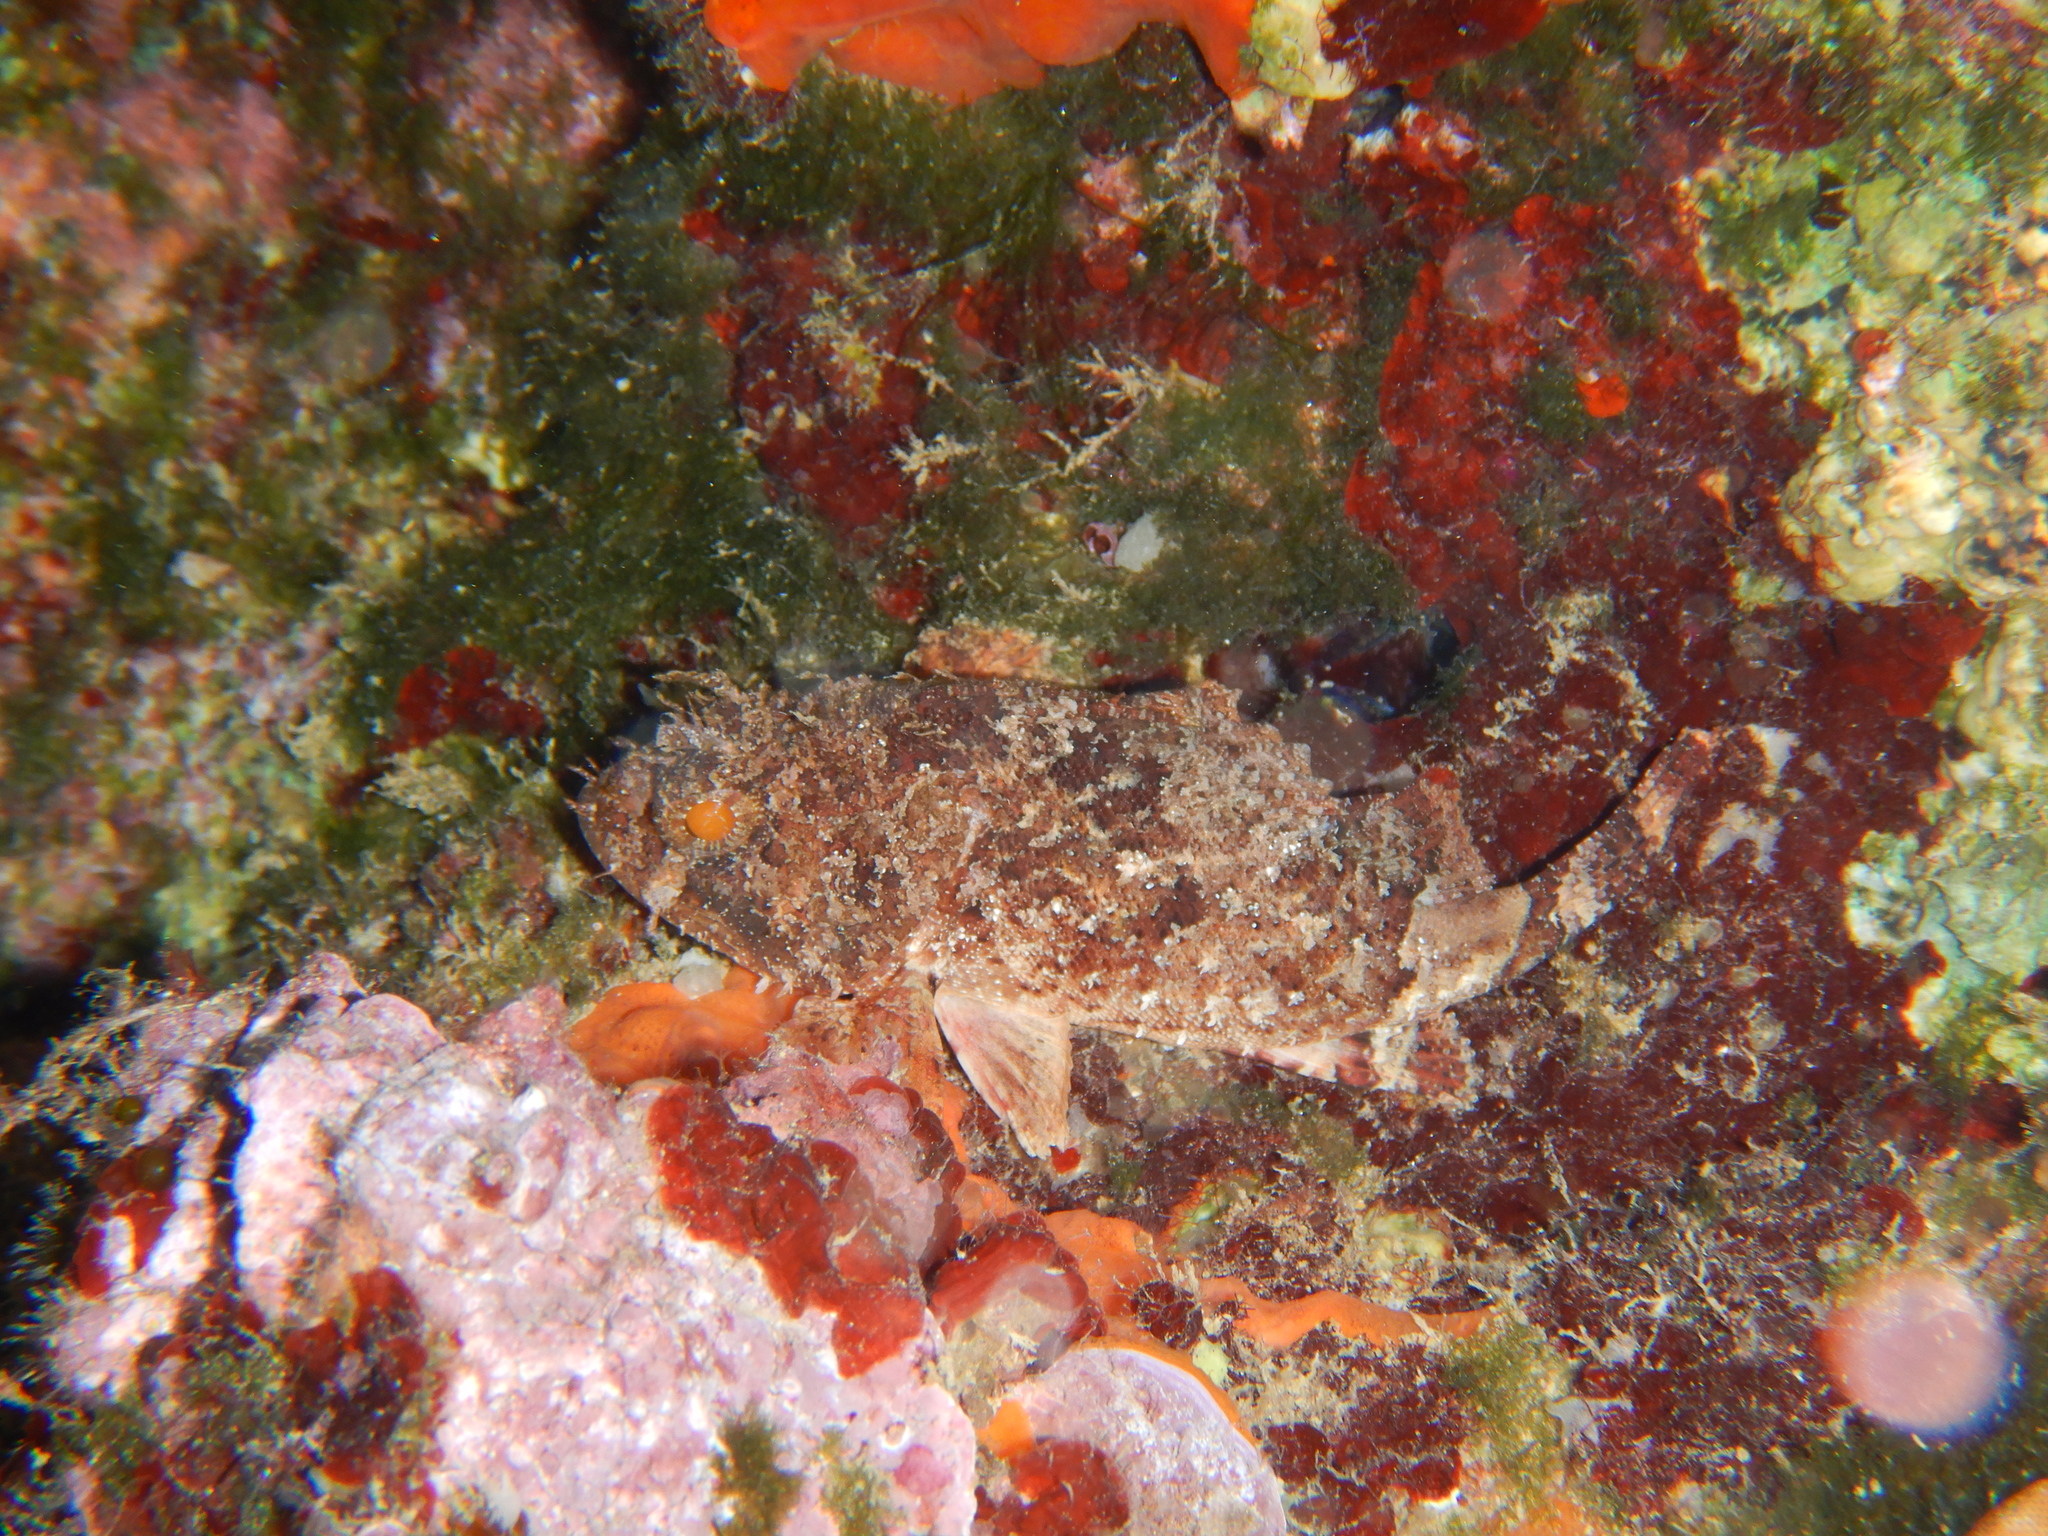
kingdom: Animalia
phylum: Chordata
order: Scorpaeniformes
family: Scorpaenidae
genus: Scorpaena
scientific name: Scorpaena porcus
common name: Black scorpionfish
